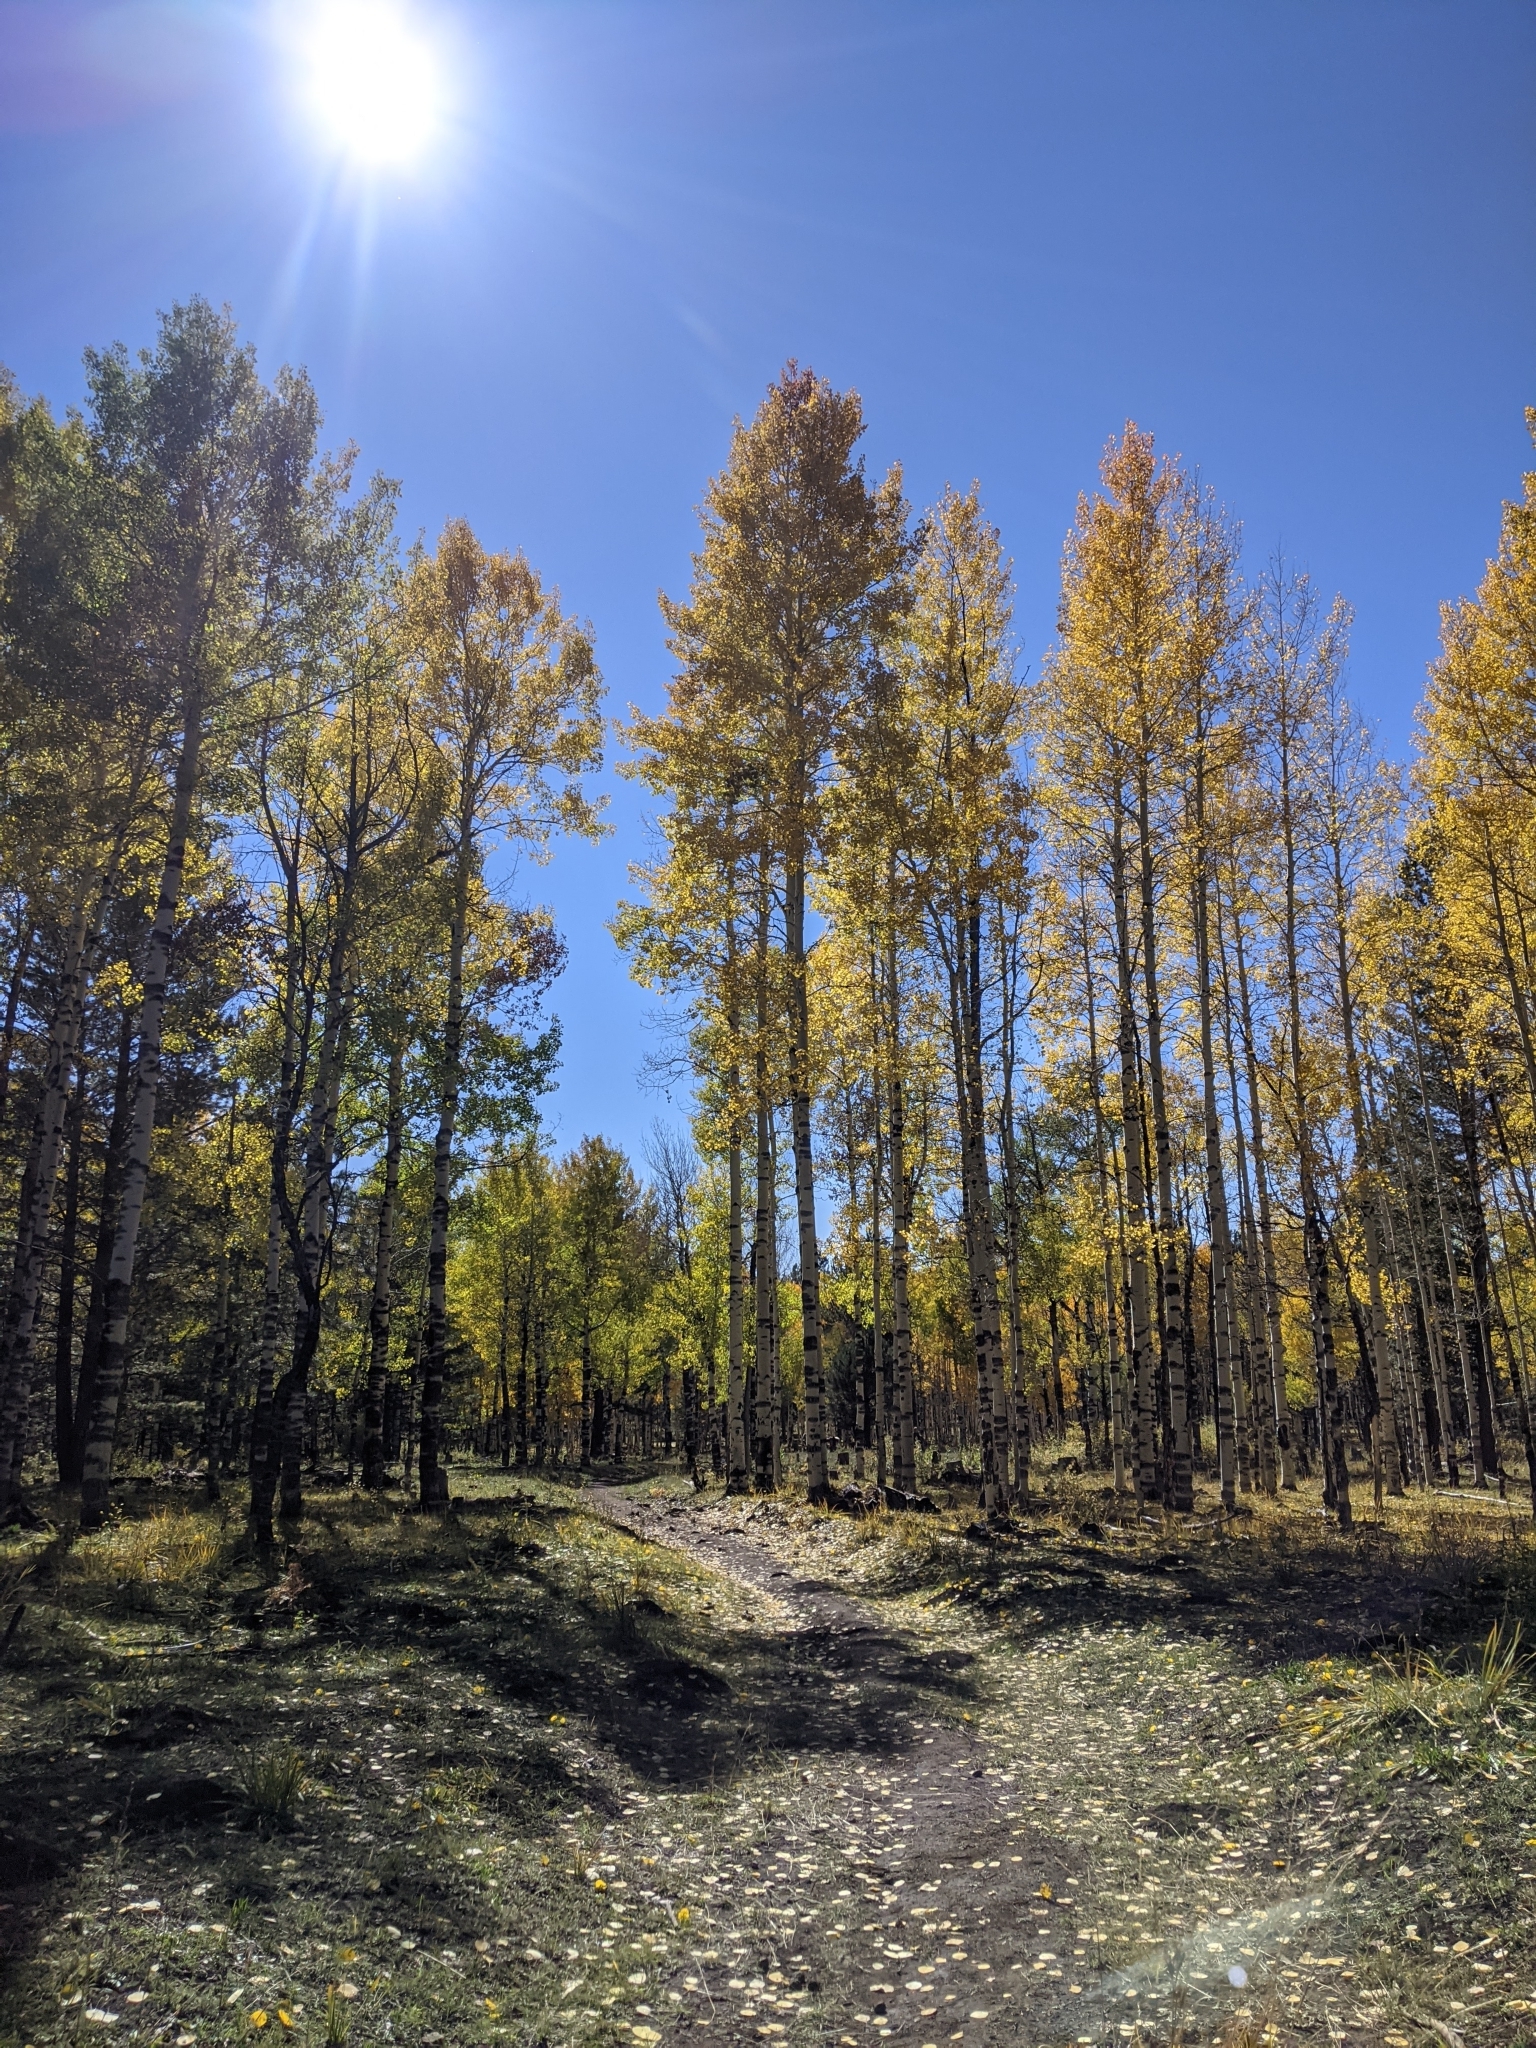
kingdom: Plantae
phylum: Tracheophyta
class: Magnoliopsida
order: Malpighiales
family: Salicaceae
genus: Populus
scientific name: Populus tremuloides
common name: Quaking aspen
